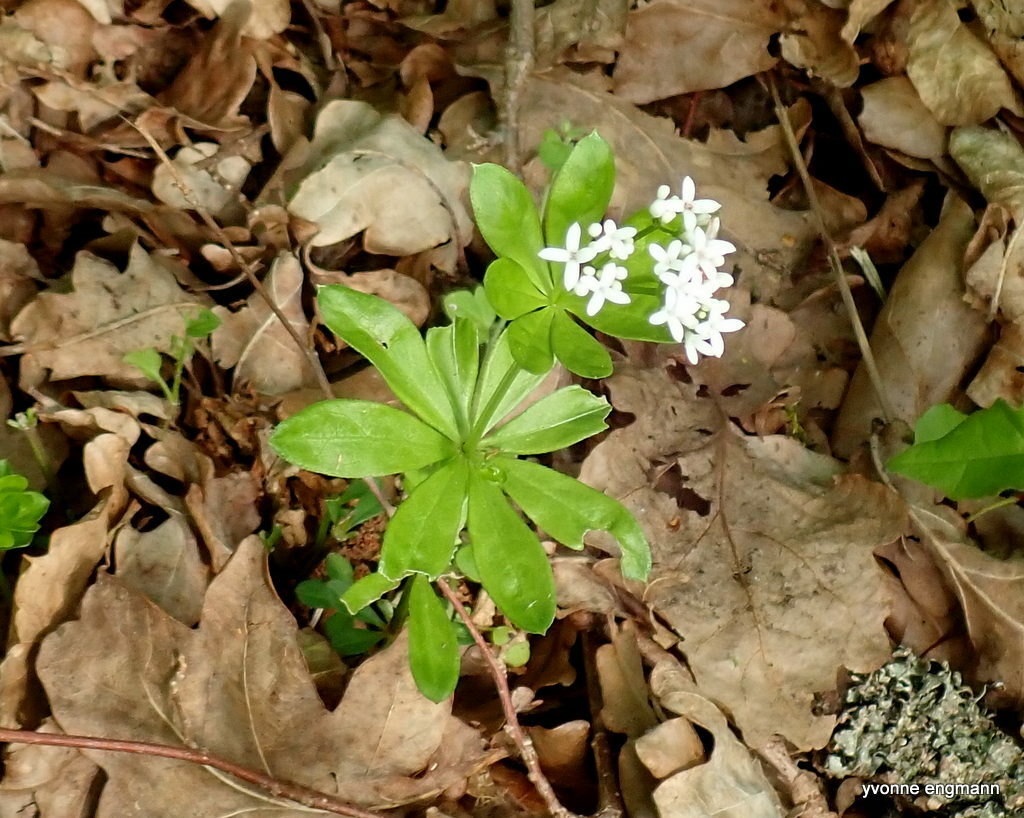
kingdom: Plantae
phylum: Tracheophyta
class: Magnoliopsida
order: Gentianales
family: Rubiaceae
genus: Galium
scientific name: Galium odoratum
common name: Sweet woodruff
